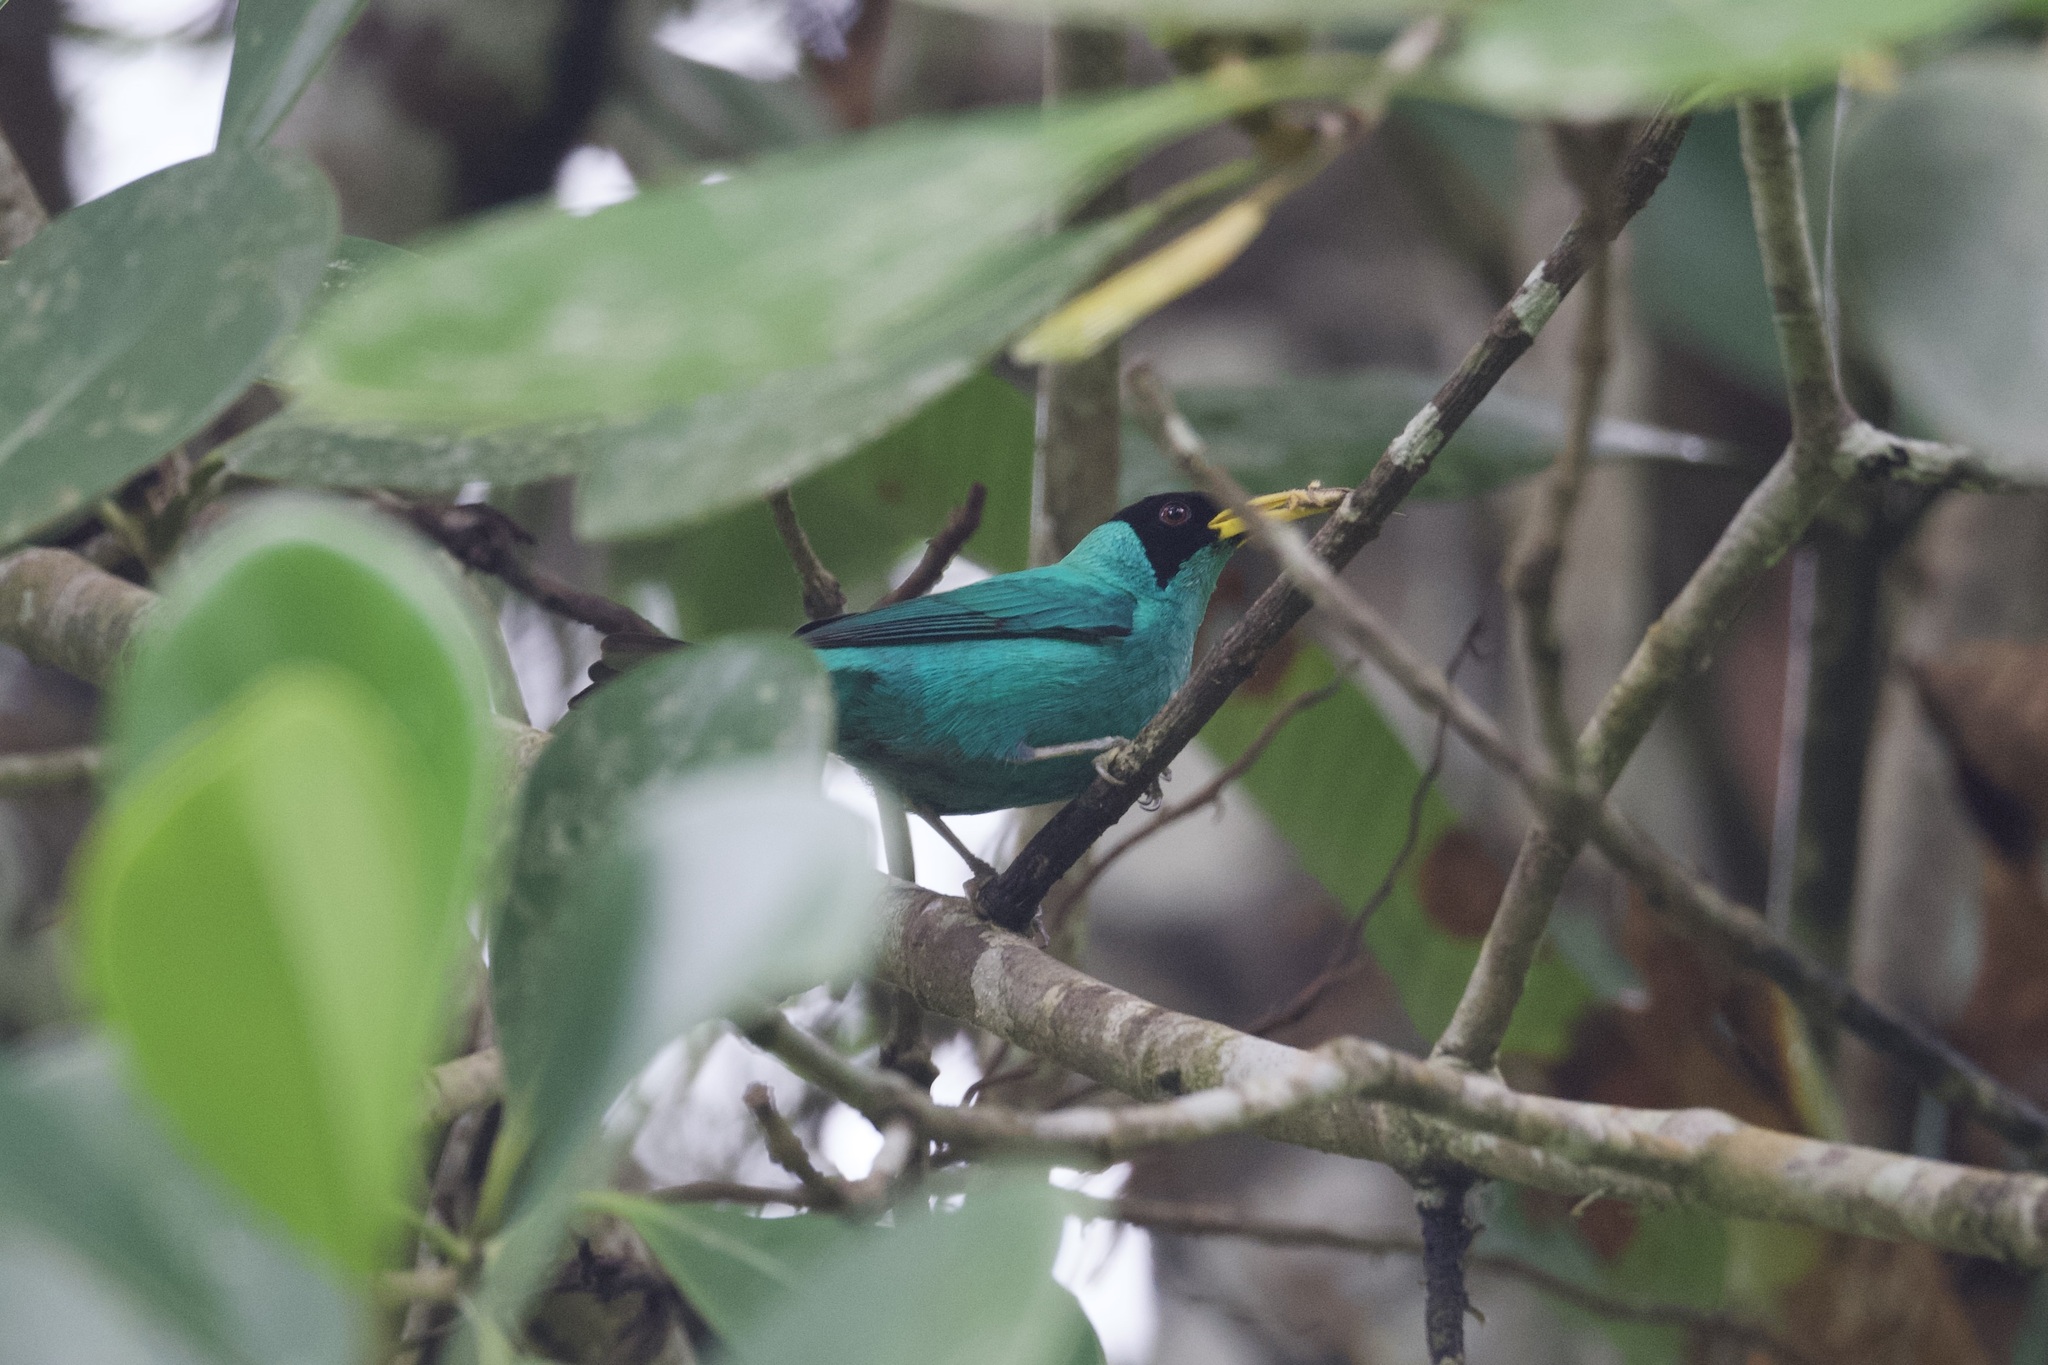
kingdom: Animalia
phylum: Chordata
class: Aves
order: Passeriformes
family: Thraupidae
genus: Chlorophanes
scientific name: Chlorophanes spiza
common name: Green honeycreeper
